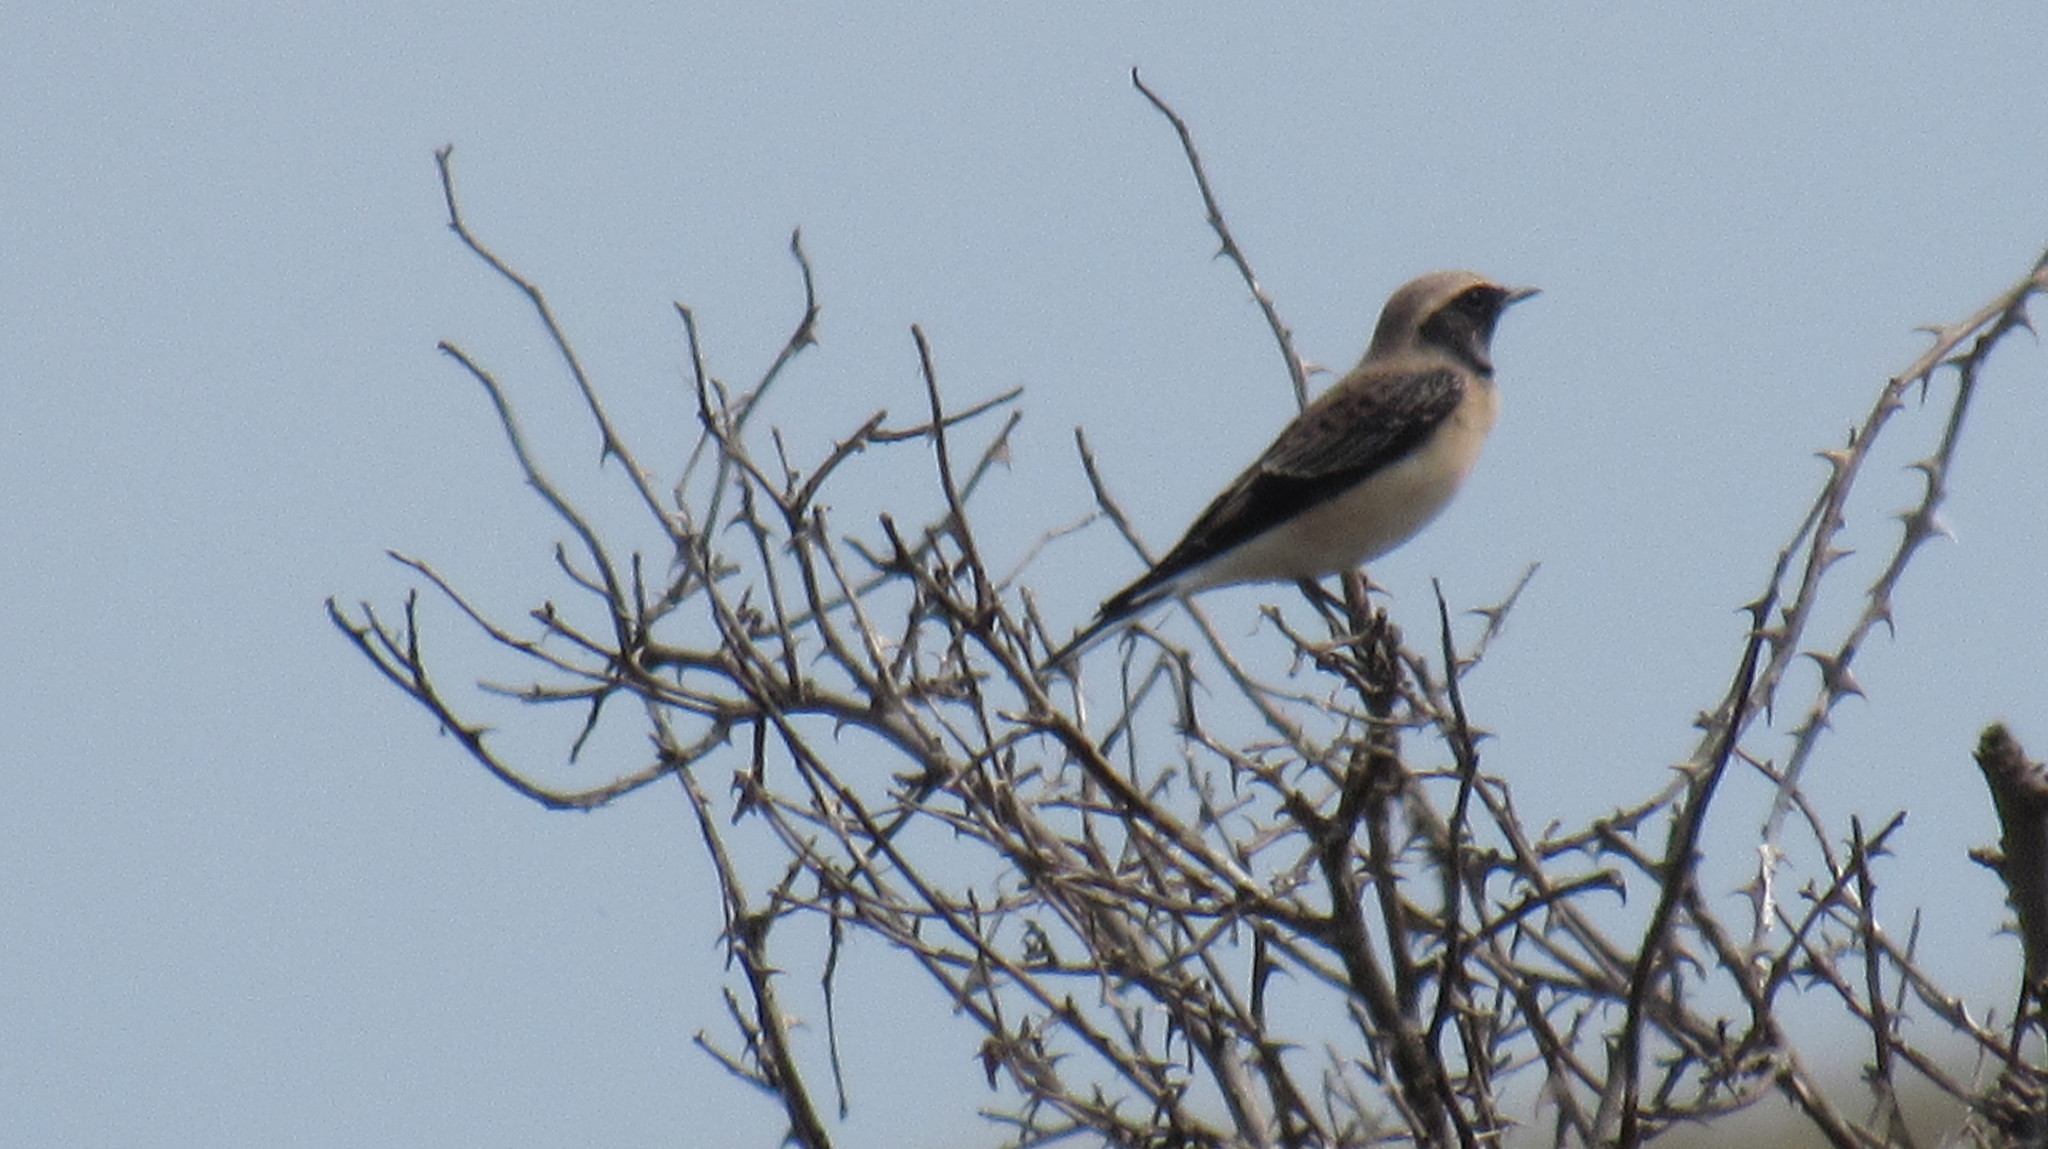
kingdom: Animalia
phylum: Chordata
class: Aves
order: Passeriformes
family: Muscicapidae
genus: Oenanthe
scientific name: Oenanthe pleschanka
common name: Pied wheatear
